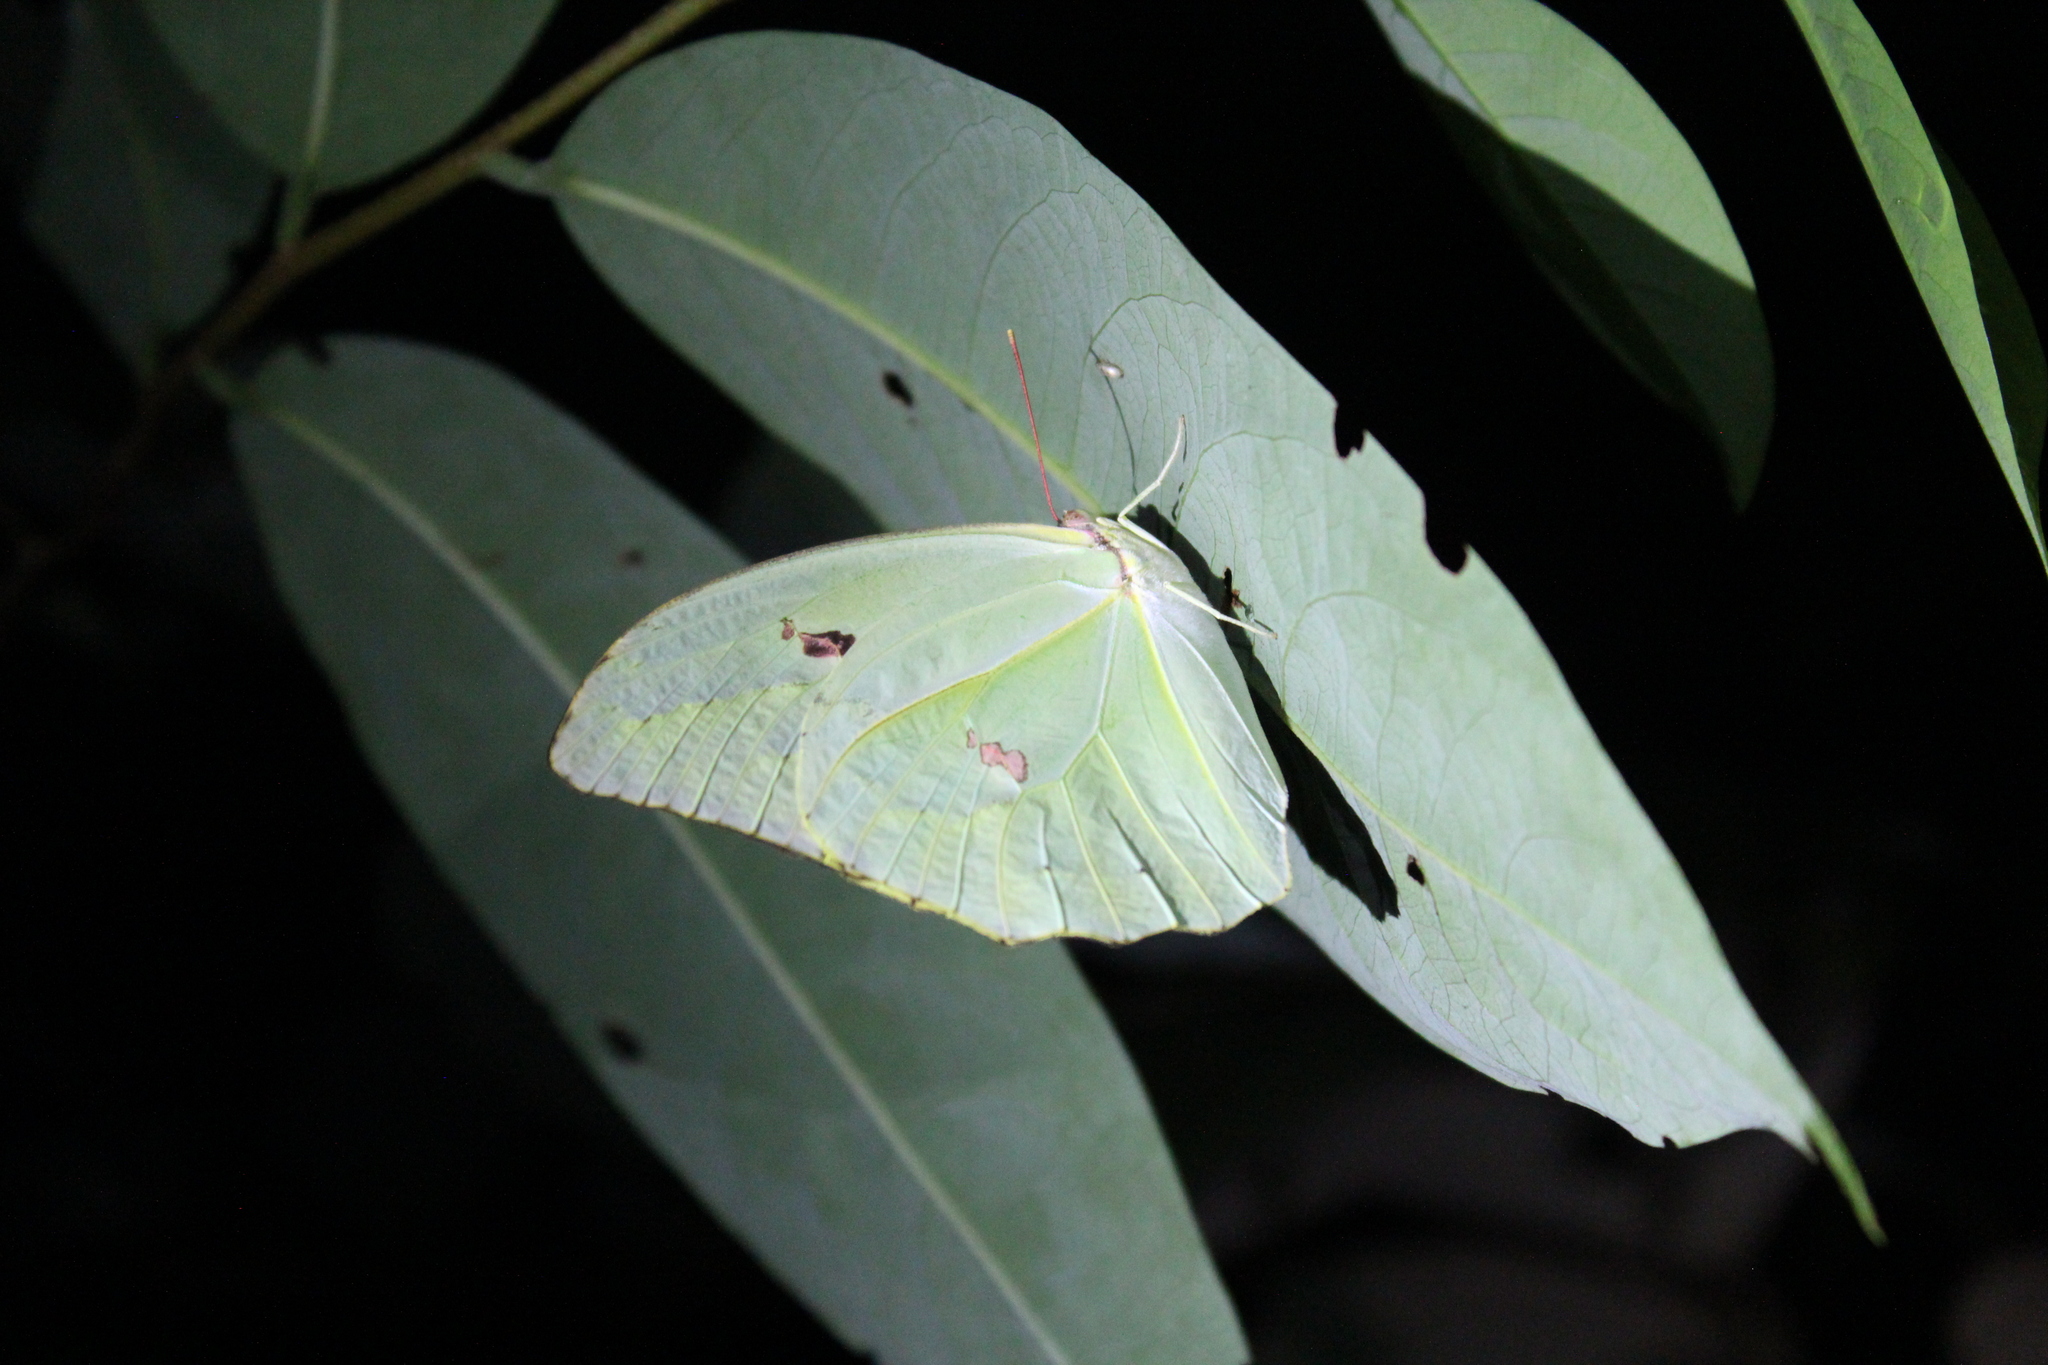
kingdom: Animalia
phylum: Arthropoda
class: Insecta
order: Lepidoptera
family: Pieridae
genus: Anteos
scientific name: Anteos menippe
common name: Orangetip angled-sulphur
